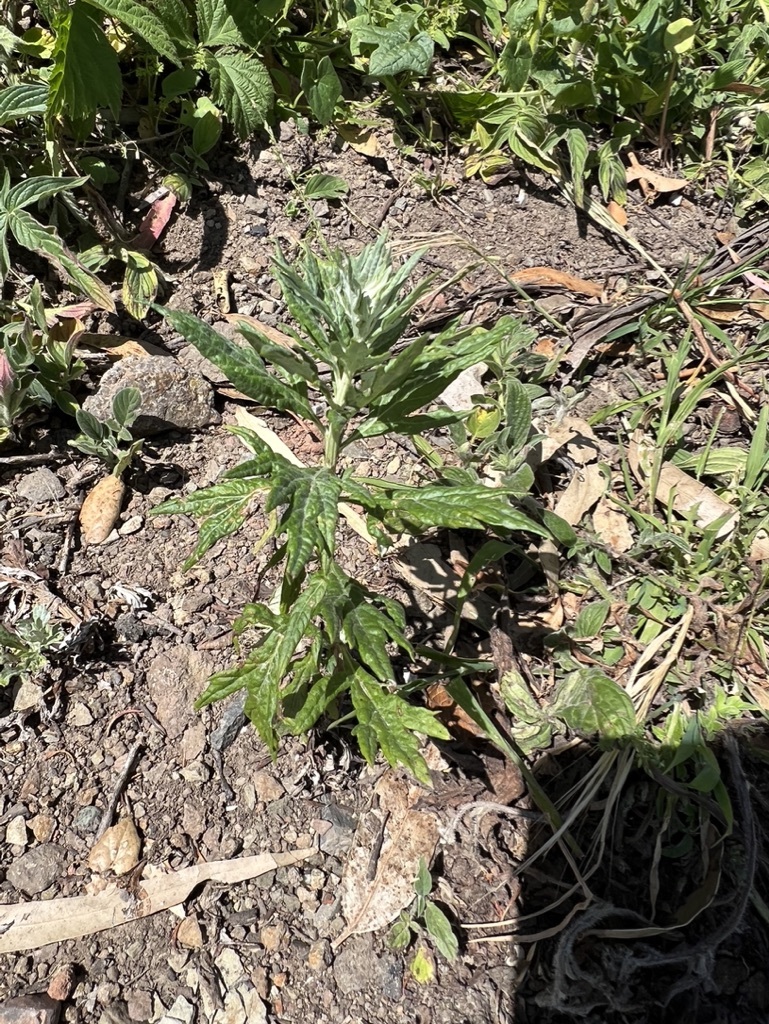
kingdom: Plantae
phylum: Tracheophyta
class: Magnoliopsida
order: Asterales
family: Asteraceae
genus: Artemisia
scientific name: Artemisia douglasiana
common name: Northwest mugwort
